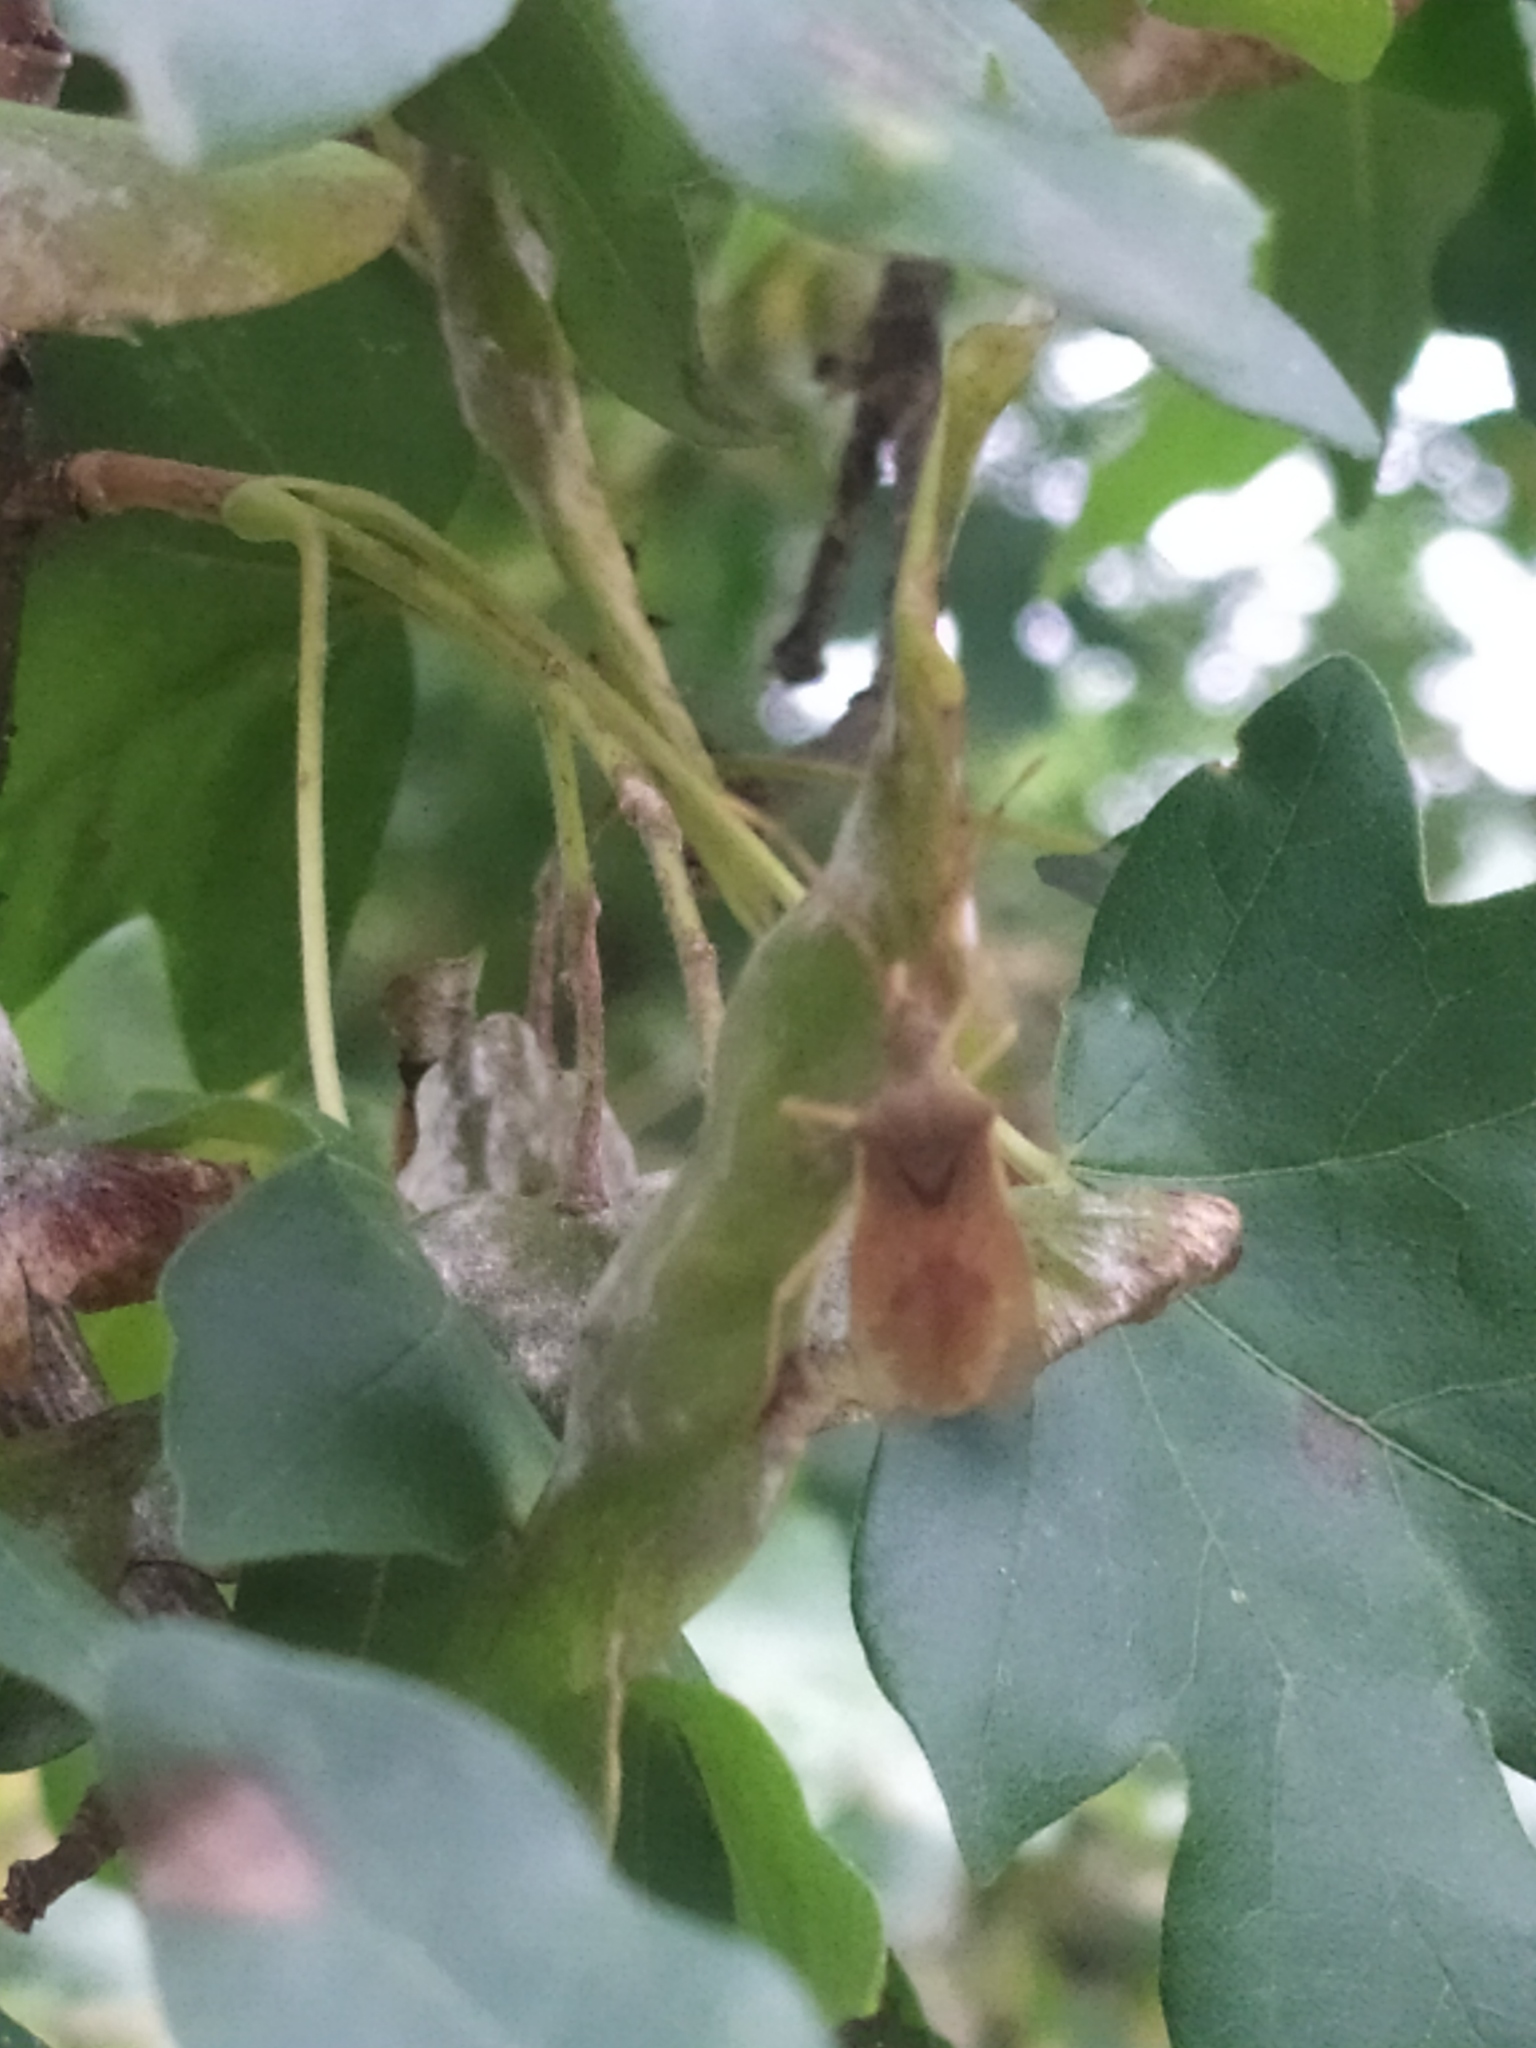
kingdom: Animalia
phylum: Arthropoda
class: Insecta
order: Hemiptera
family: Coreidae
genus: Gonocerus
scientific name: Gonocerus acuteangulatus
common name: Box bug
